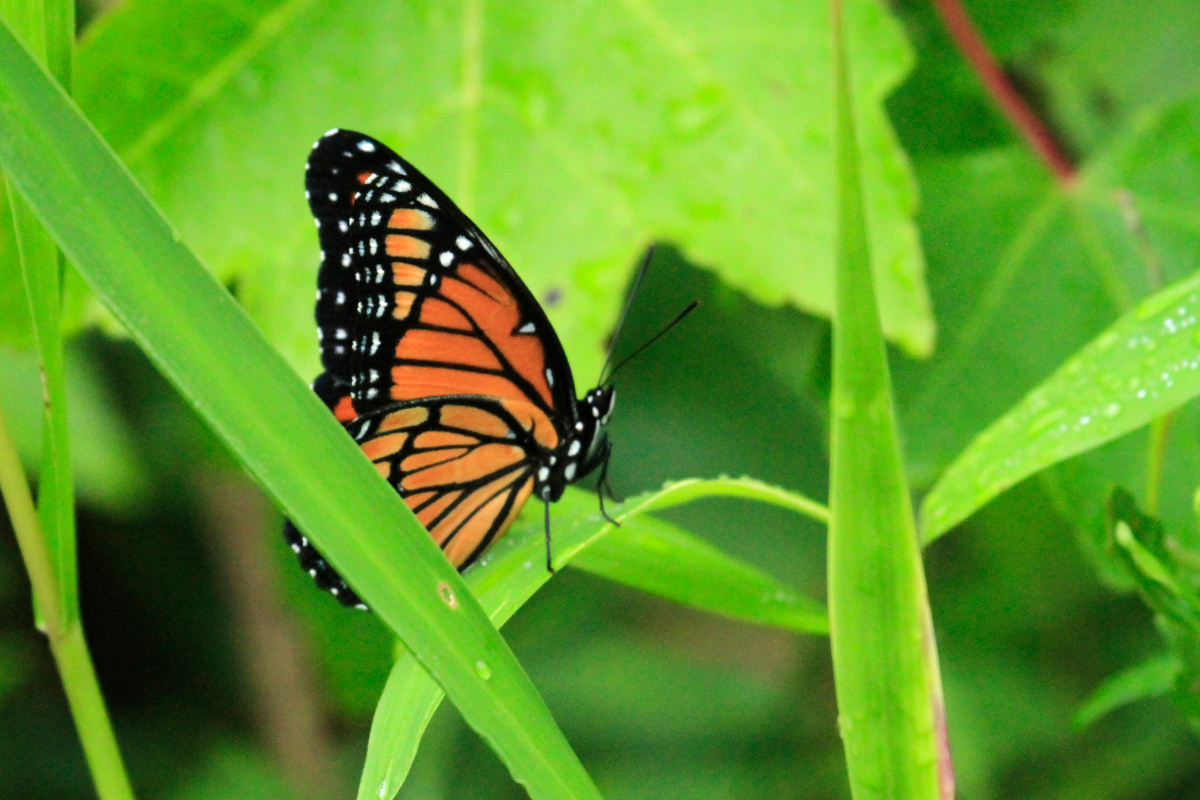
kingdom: Animalia
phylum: Arthropoda
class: Insecta
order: Lepidoptera
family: Nymphalidae
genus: Limenitis
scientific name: Limenitis archippus
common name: Viceroy
